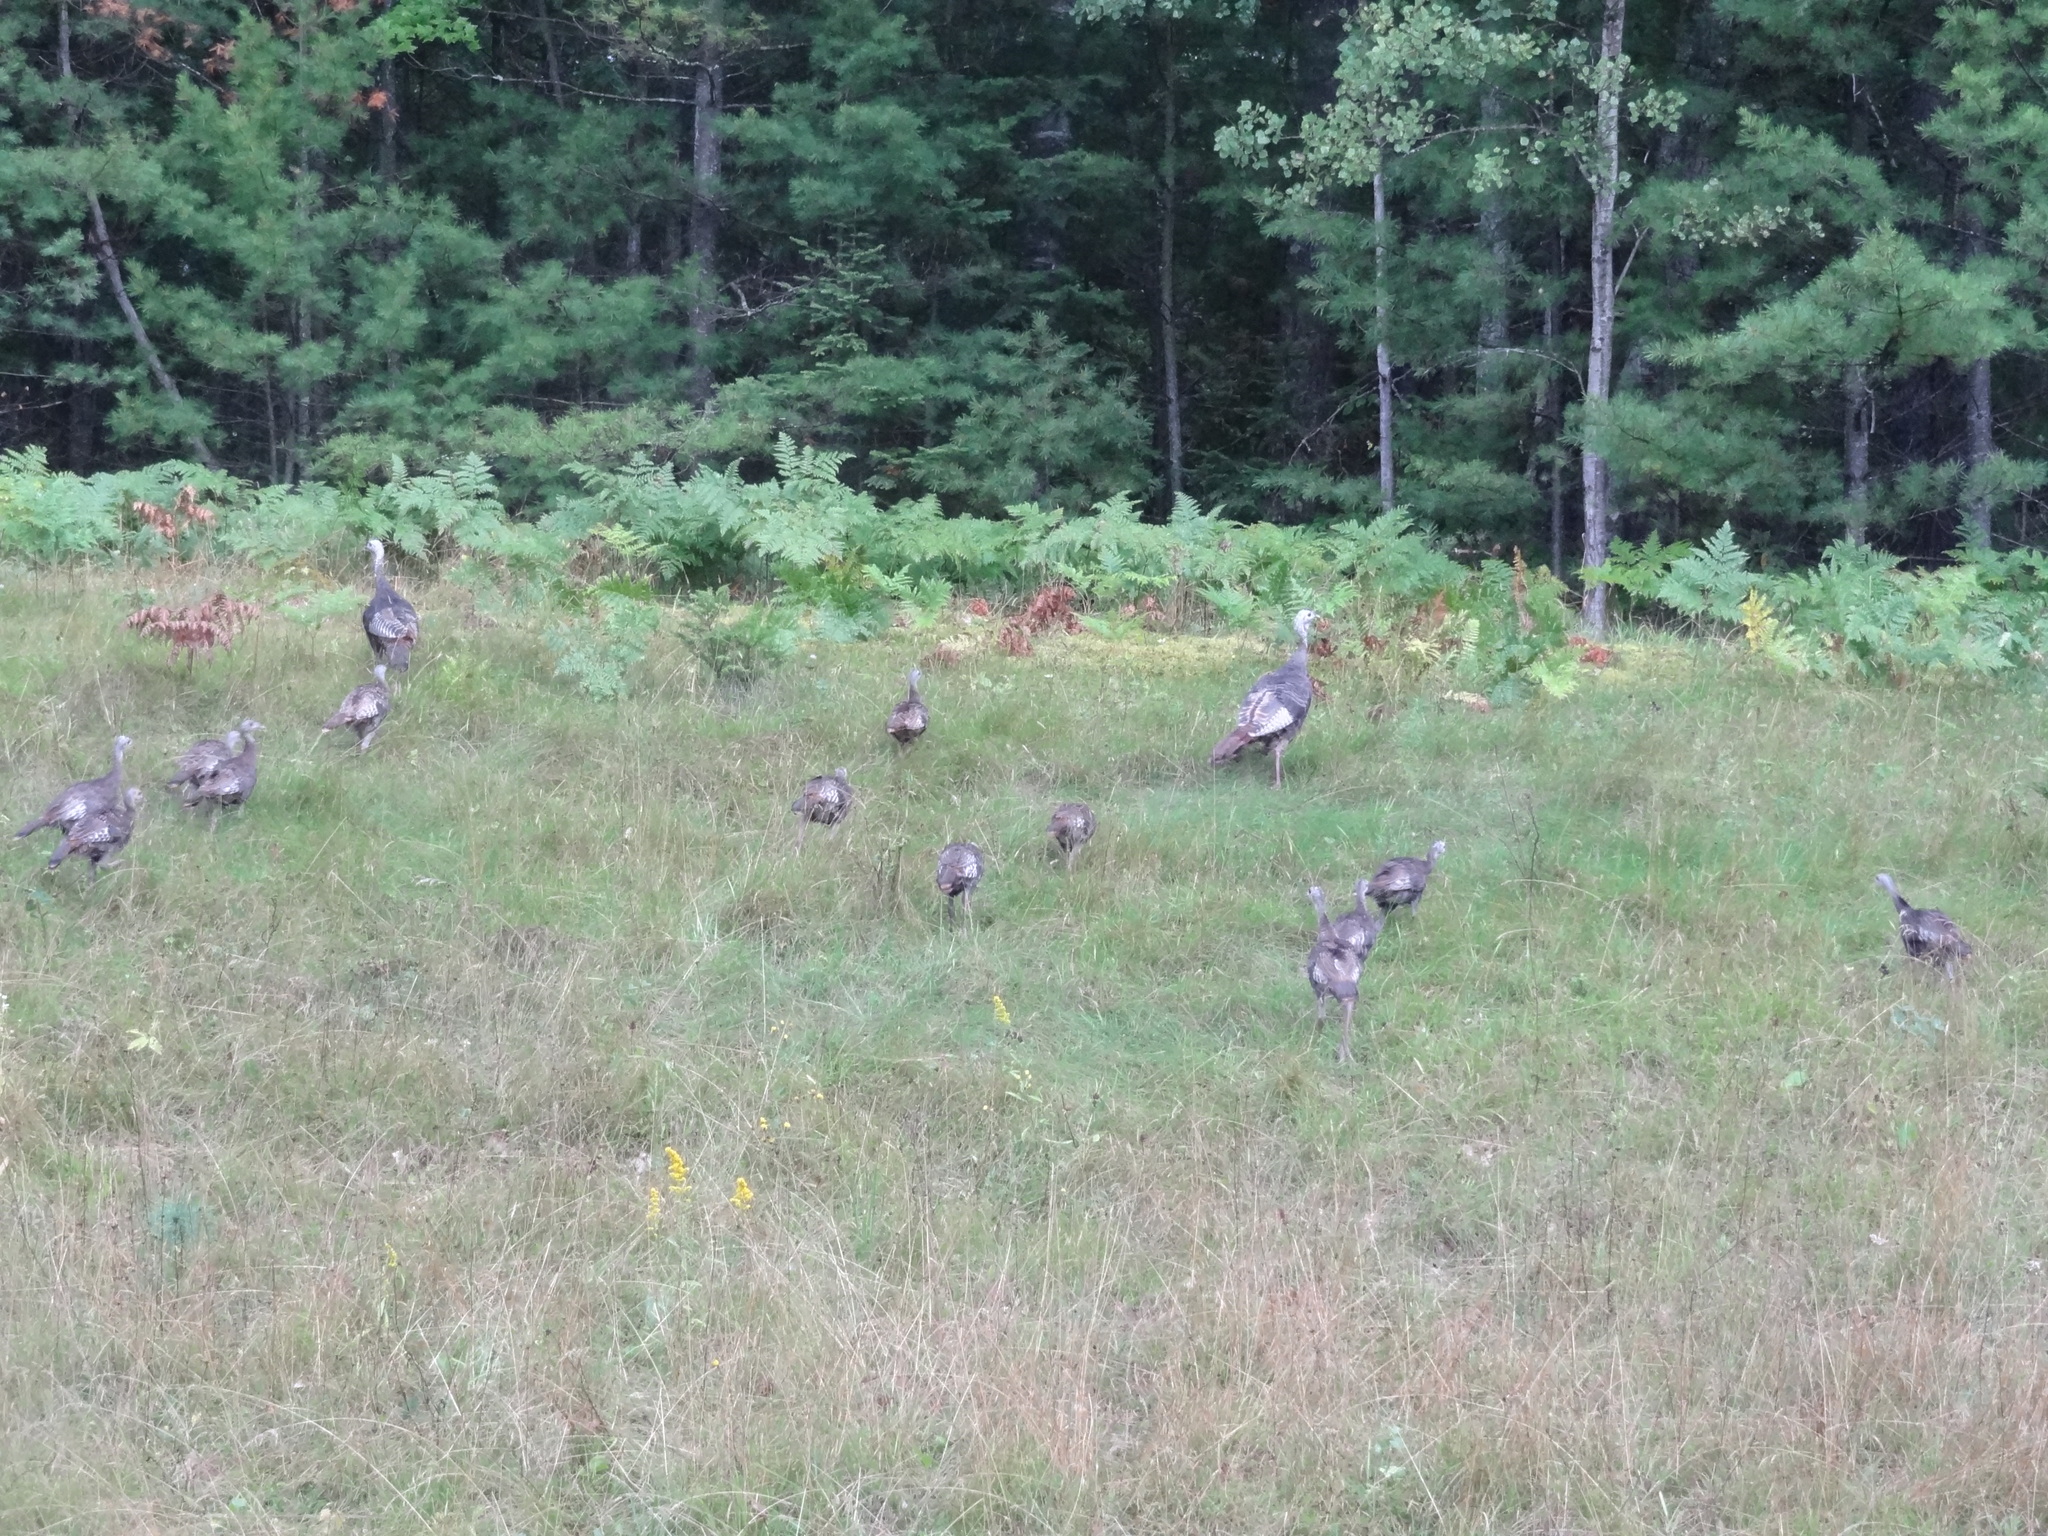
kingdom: Animalia
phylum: Chordata
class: Aves
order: Galliformes
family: Phasianidae
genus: Meleagris
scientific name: Meleagris gallopavo
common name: Wild turkey
